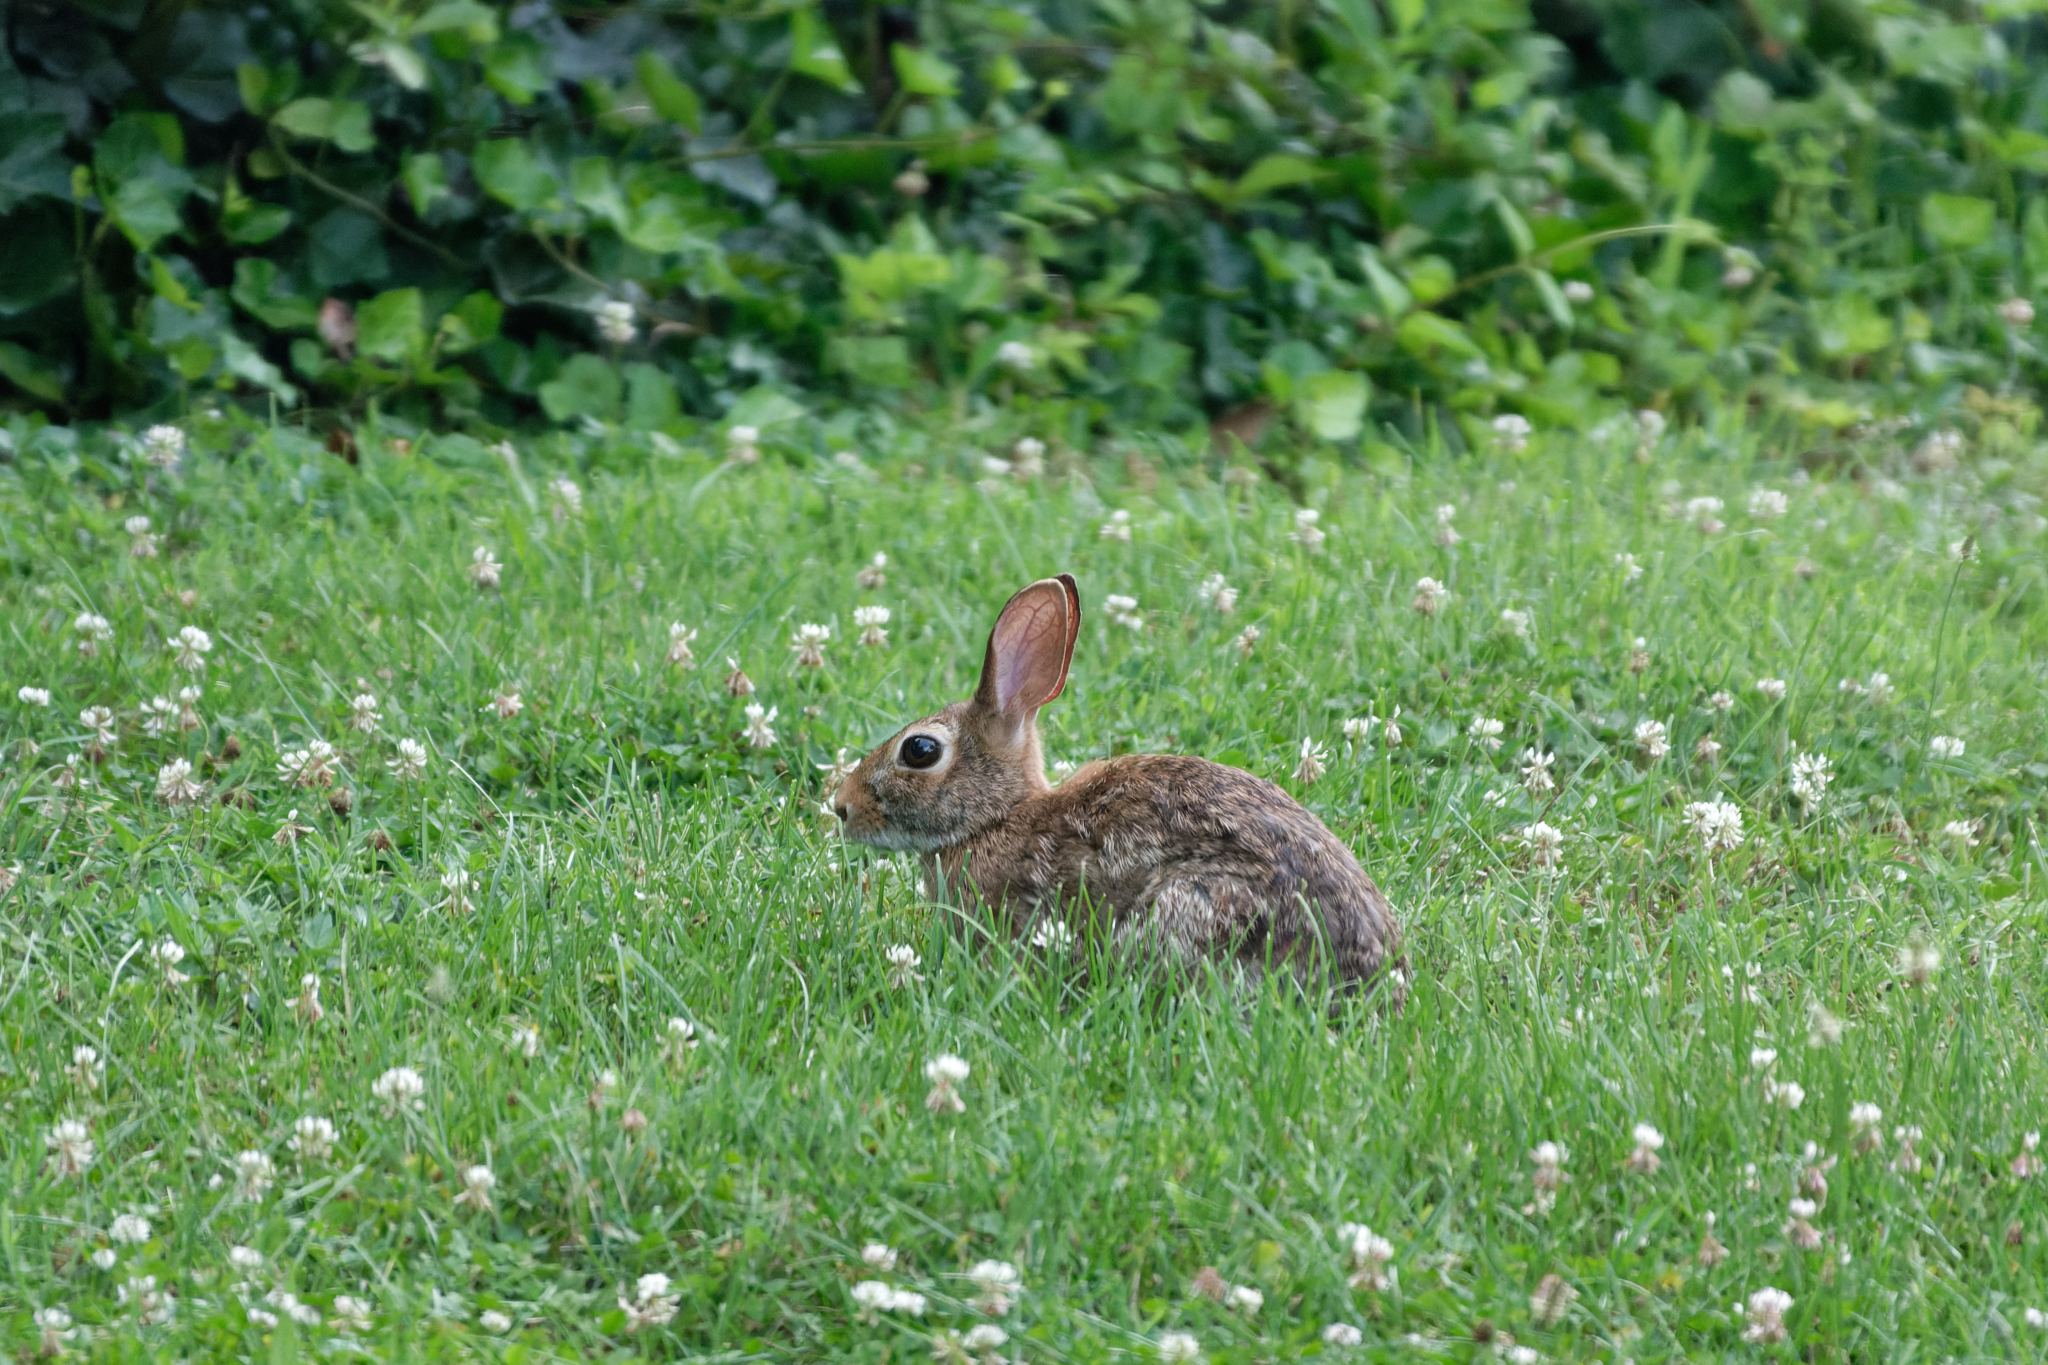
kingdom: Animalia
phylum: Chordata
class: Mammalia
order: Lagomorpha
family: Leporidae
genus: Sylvilagus
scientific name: Sylvilagus floridanus
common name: Eastern cottontail
